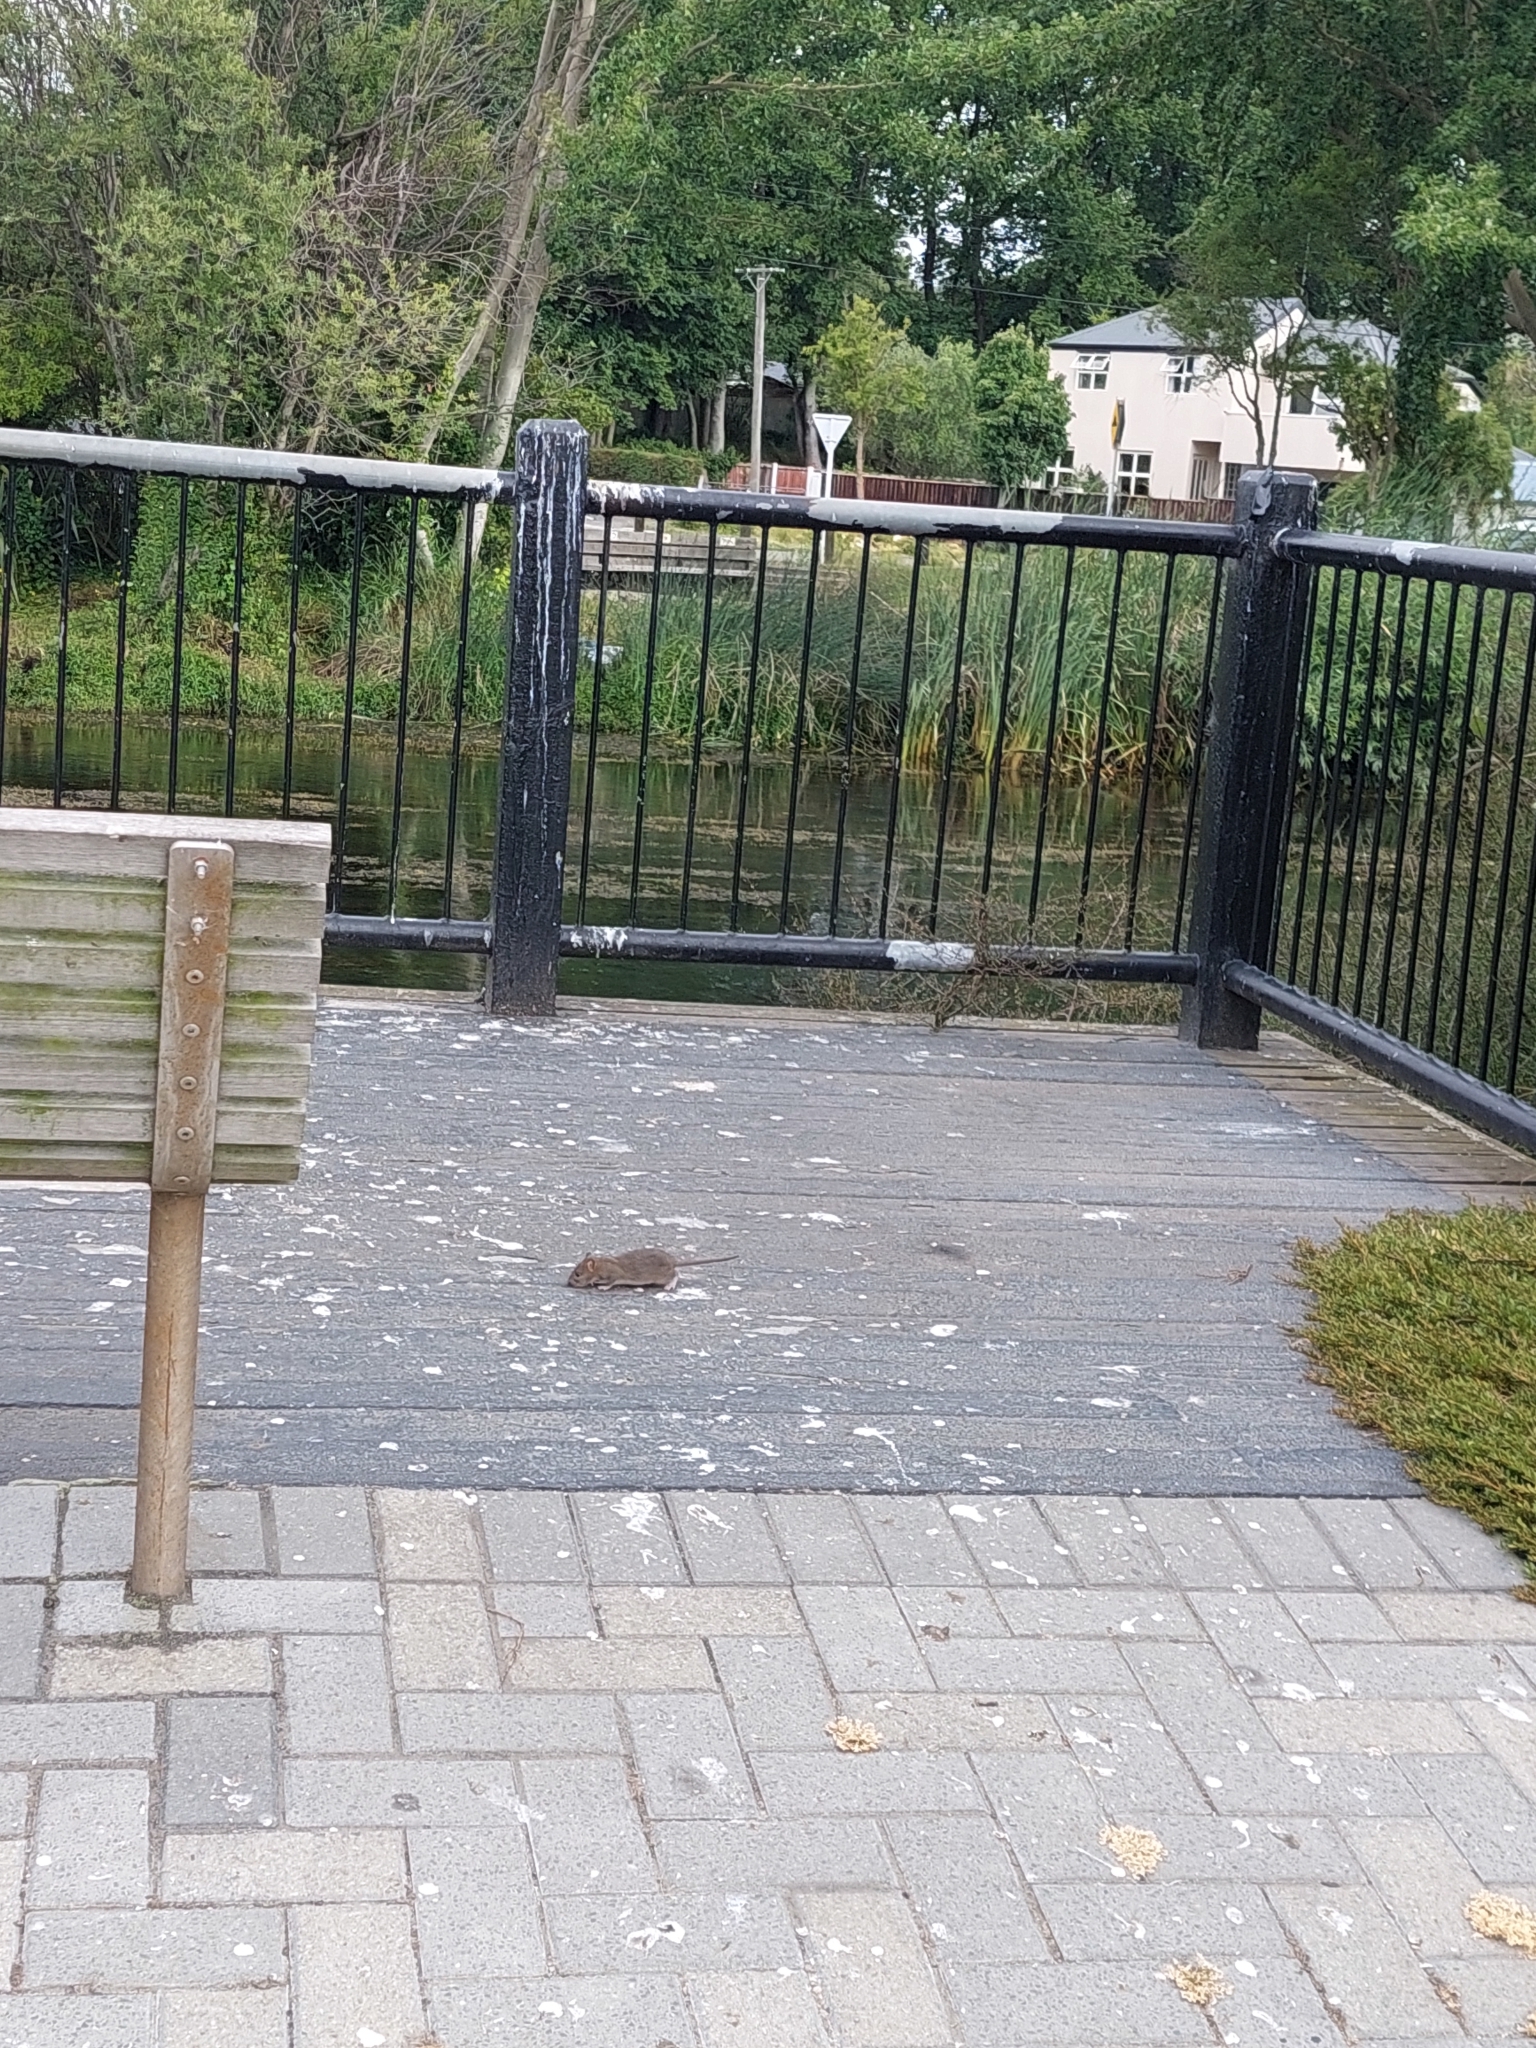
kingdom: Animalia
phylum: Chordata
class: Mammalia
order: Rodentia
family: Muridae
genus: Rattus
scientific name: Rattus norvegicus
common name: Brown rat
